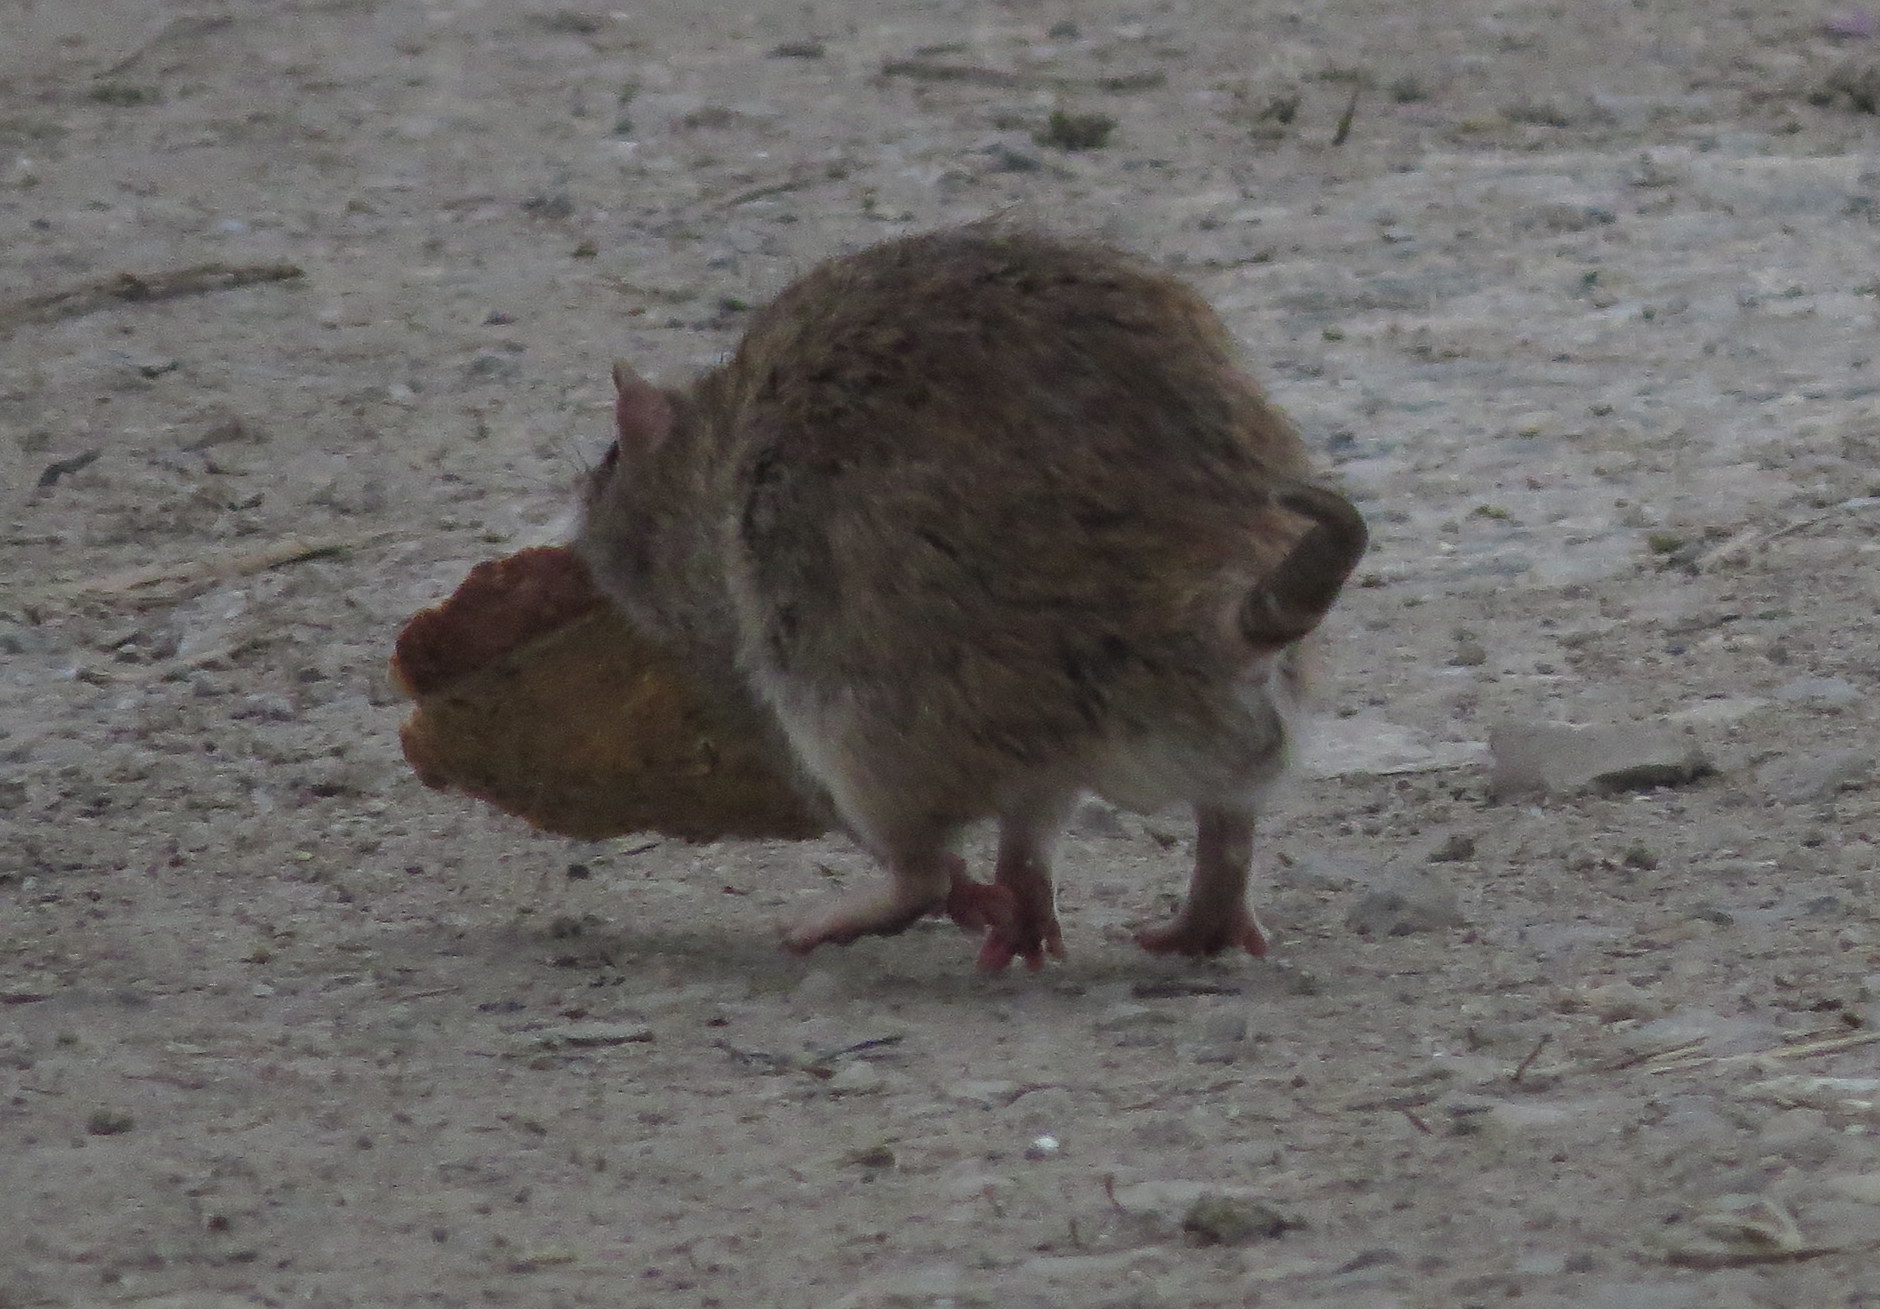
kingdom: Animalia
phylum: Chordata
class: Mammalia
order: Rodentia
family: Muridae
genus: Rattus
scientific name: Rattus norvegicus
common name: Brown rat
